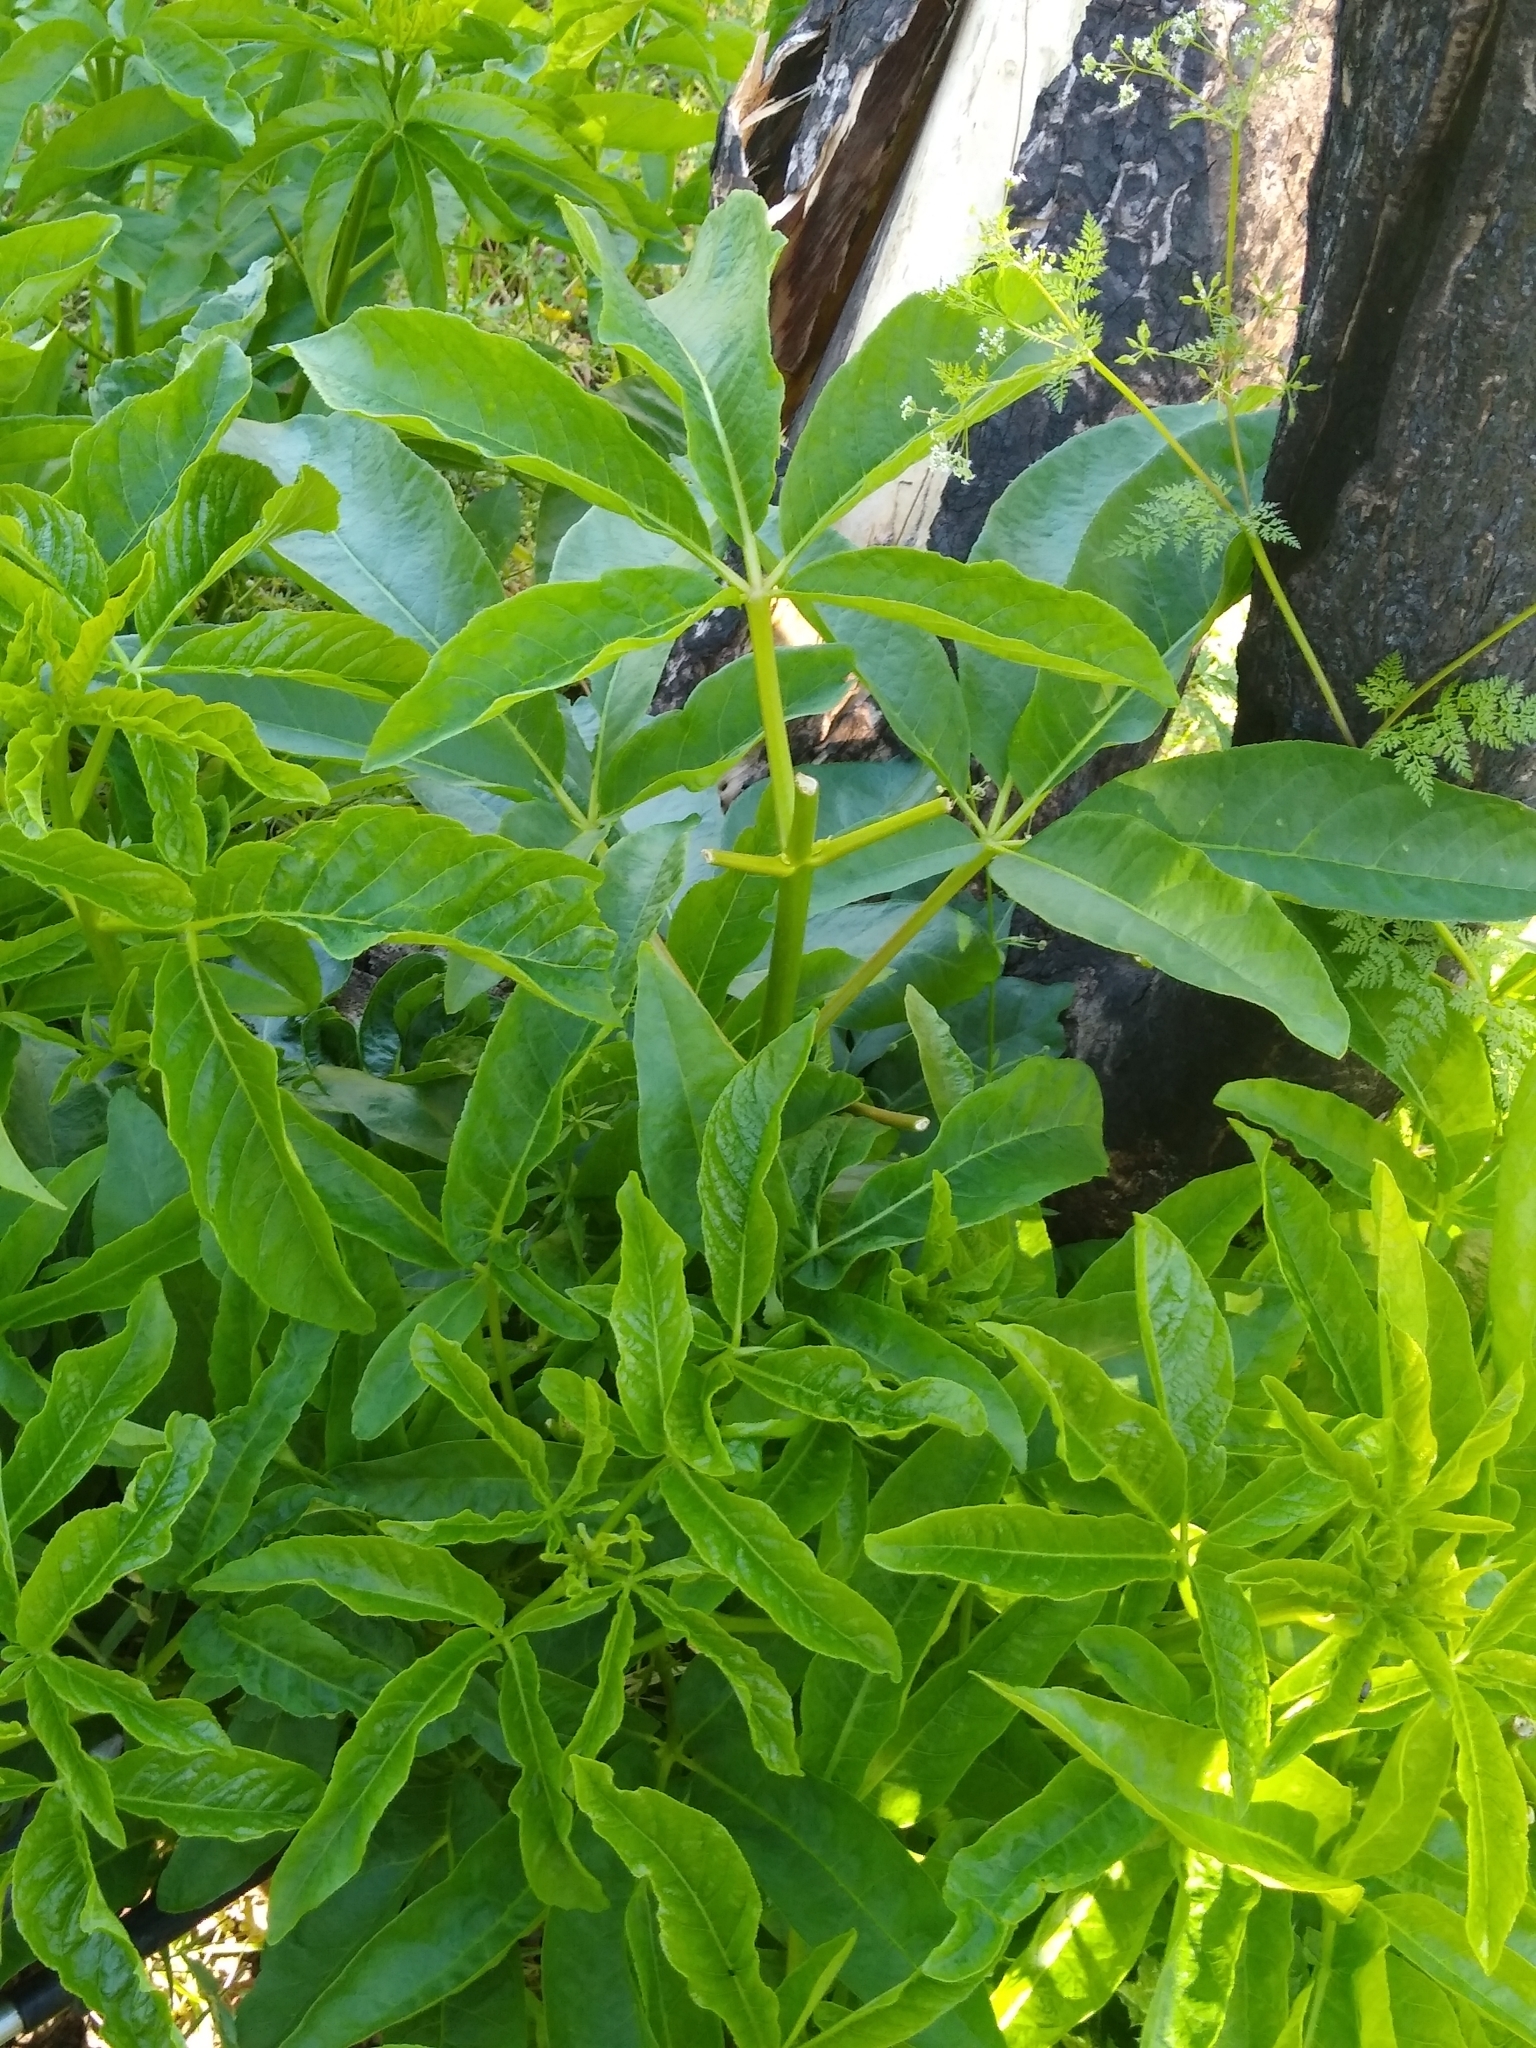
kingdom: Plantae
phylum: Tracheophyta
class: Magnoliopsida
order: Sapindales
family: Sapindaceae
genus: Aesculus
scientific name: Aesculus californica
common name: California buckeye
